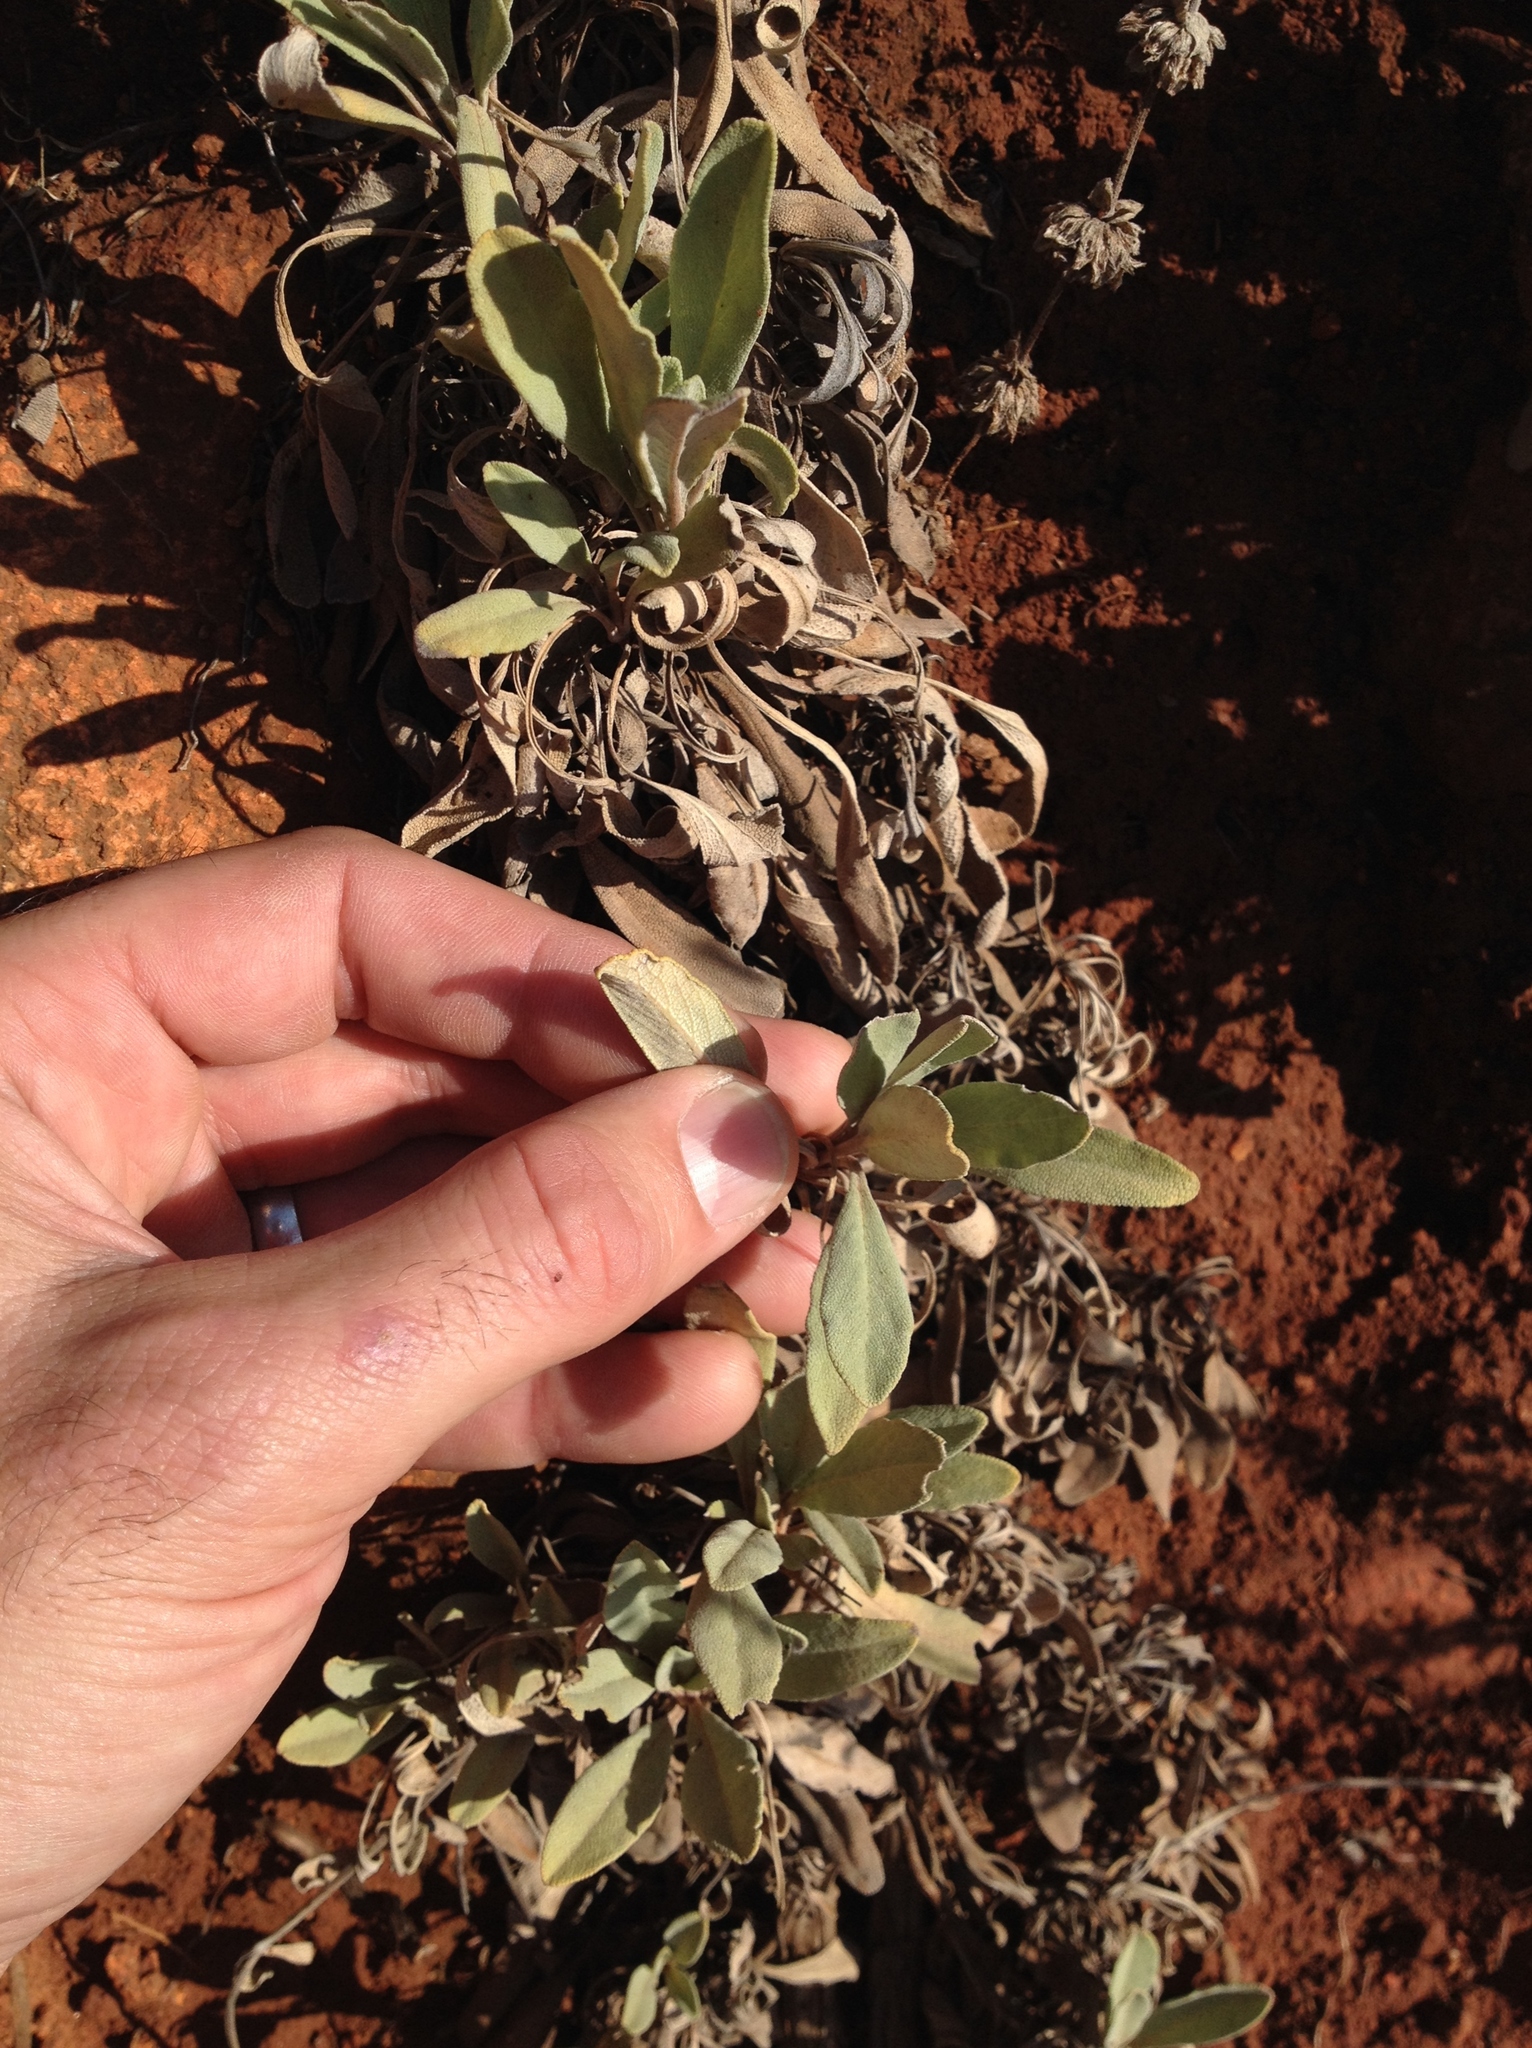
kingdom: Plantae
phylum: Tracheophyta
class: Magnoliopsida
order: Lamiales
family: Lamiaceae
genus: Salvia
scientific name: Salvia sonomensis
